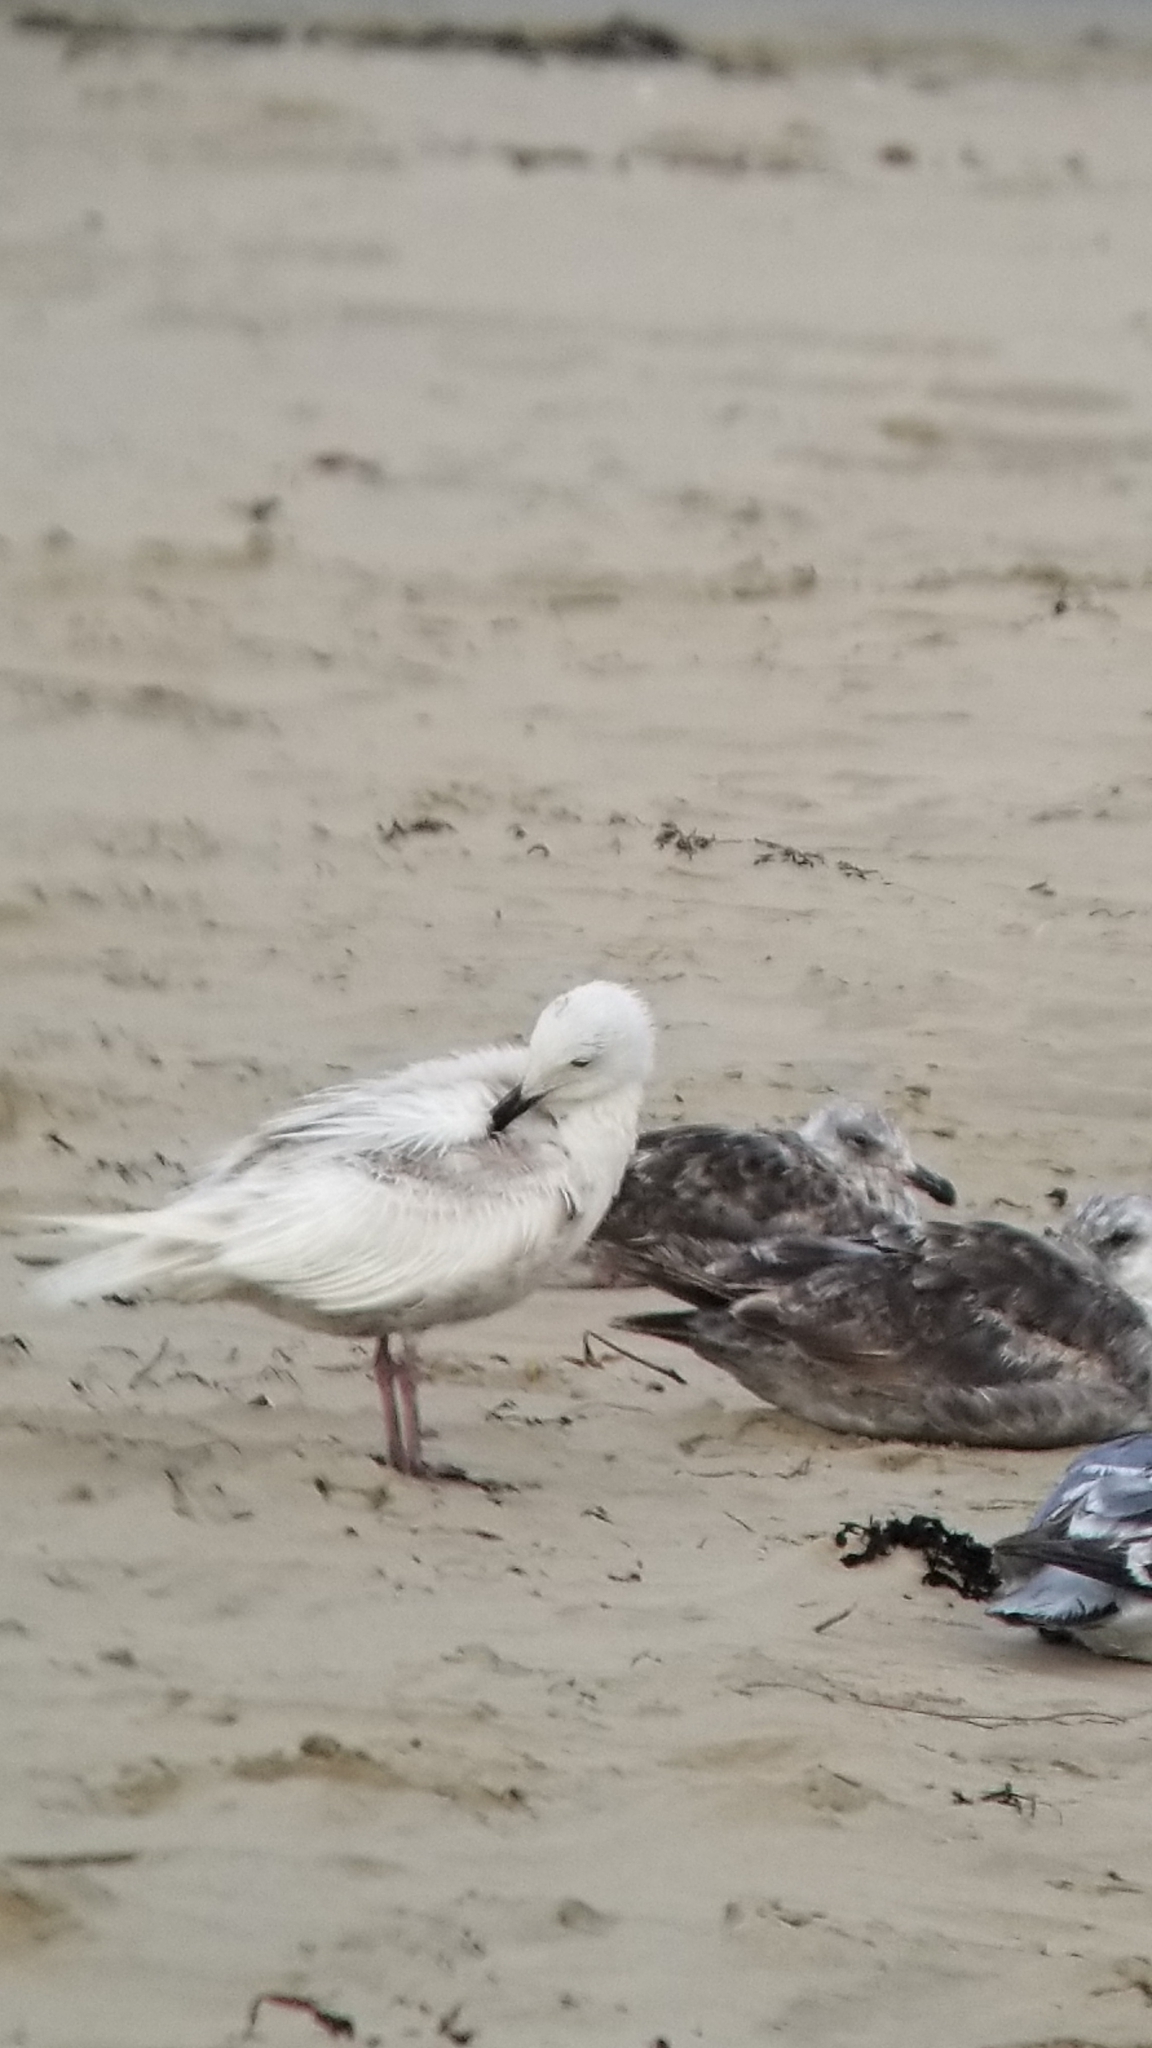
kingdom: Animalia
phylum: Chordata
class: Aves
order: Charadriiformes
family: Laridae
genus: Larus
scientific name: Larus glaucescens
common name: Glaucous-winged gull
